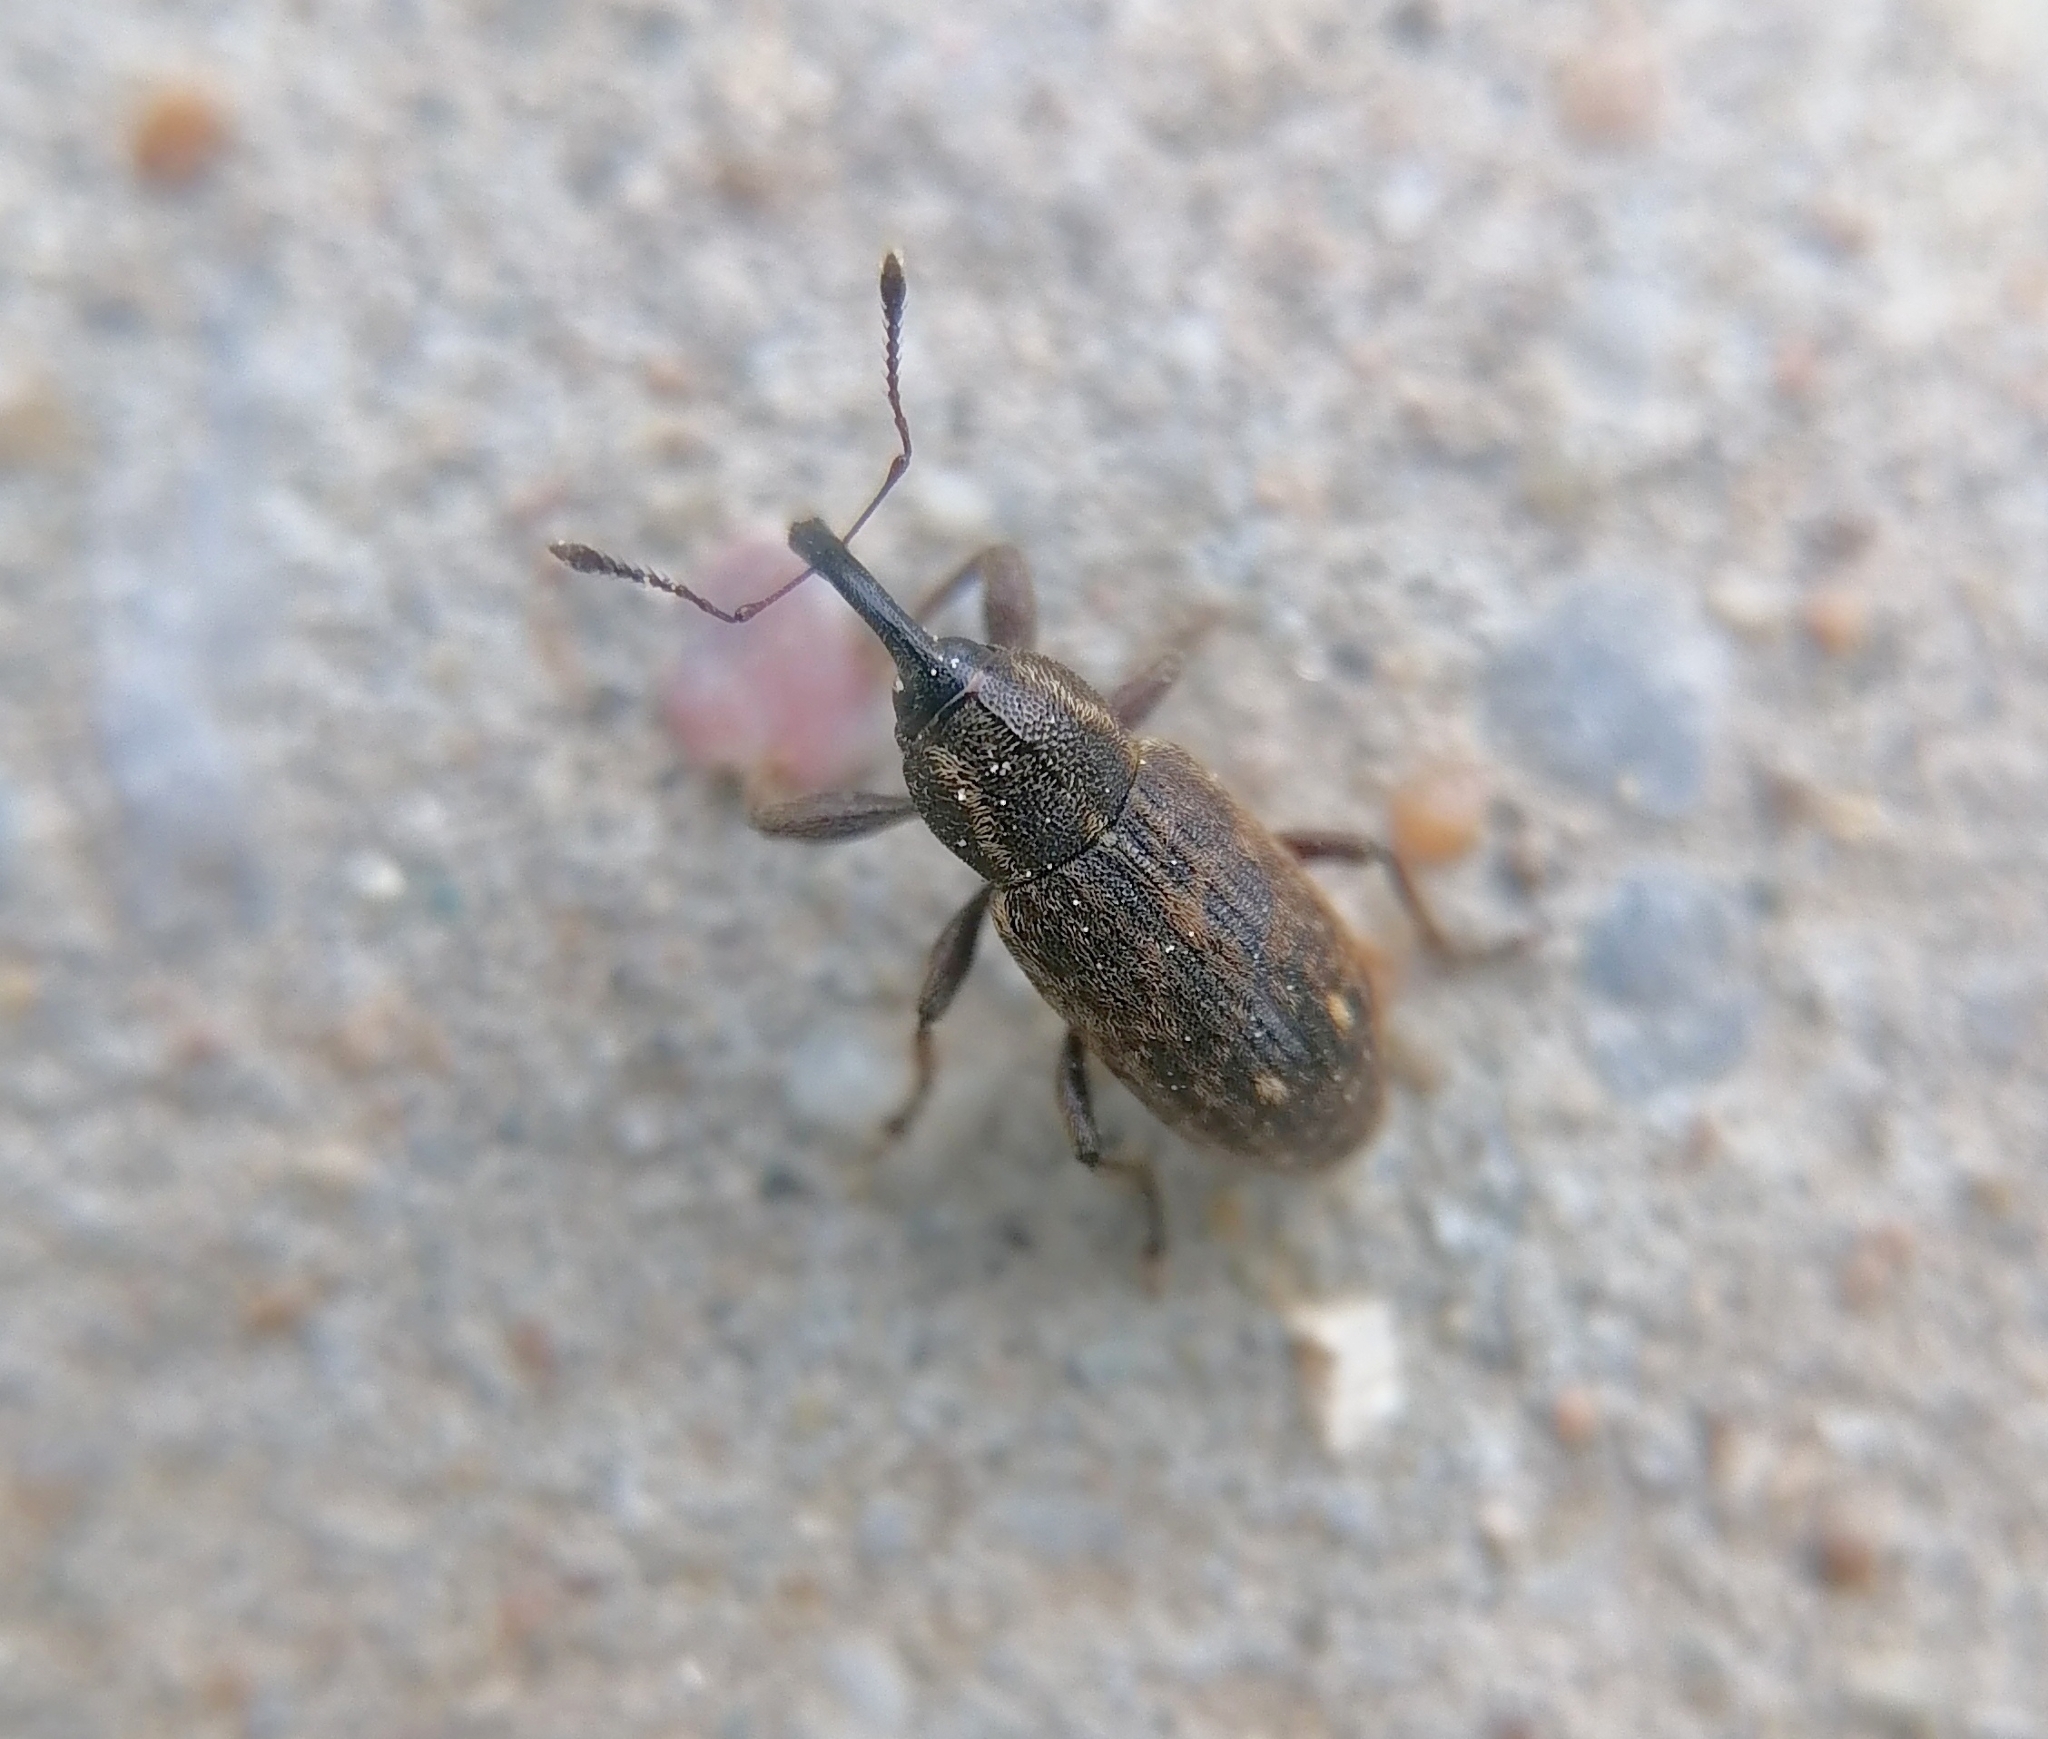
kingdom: Animalia
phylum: Arthropoda
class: Insecta
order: Coleoptera
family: Brachyceridae
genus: Tournotaris
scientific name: Tournotaris bimaculata
